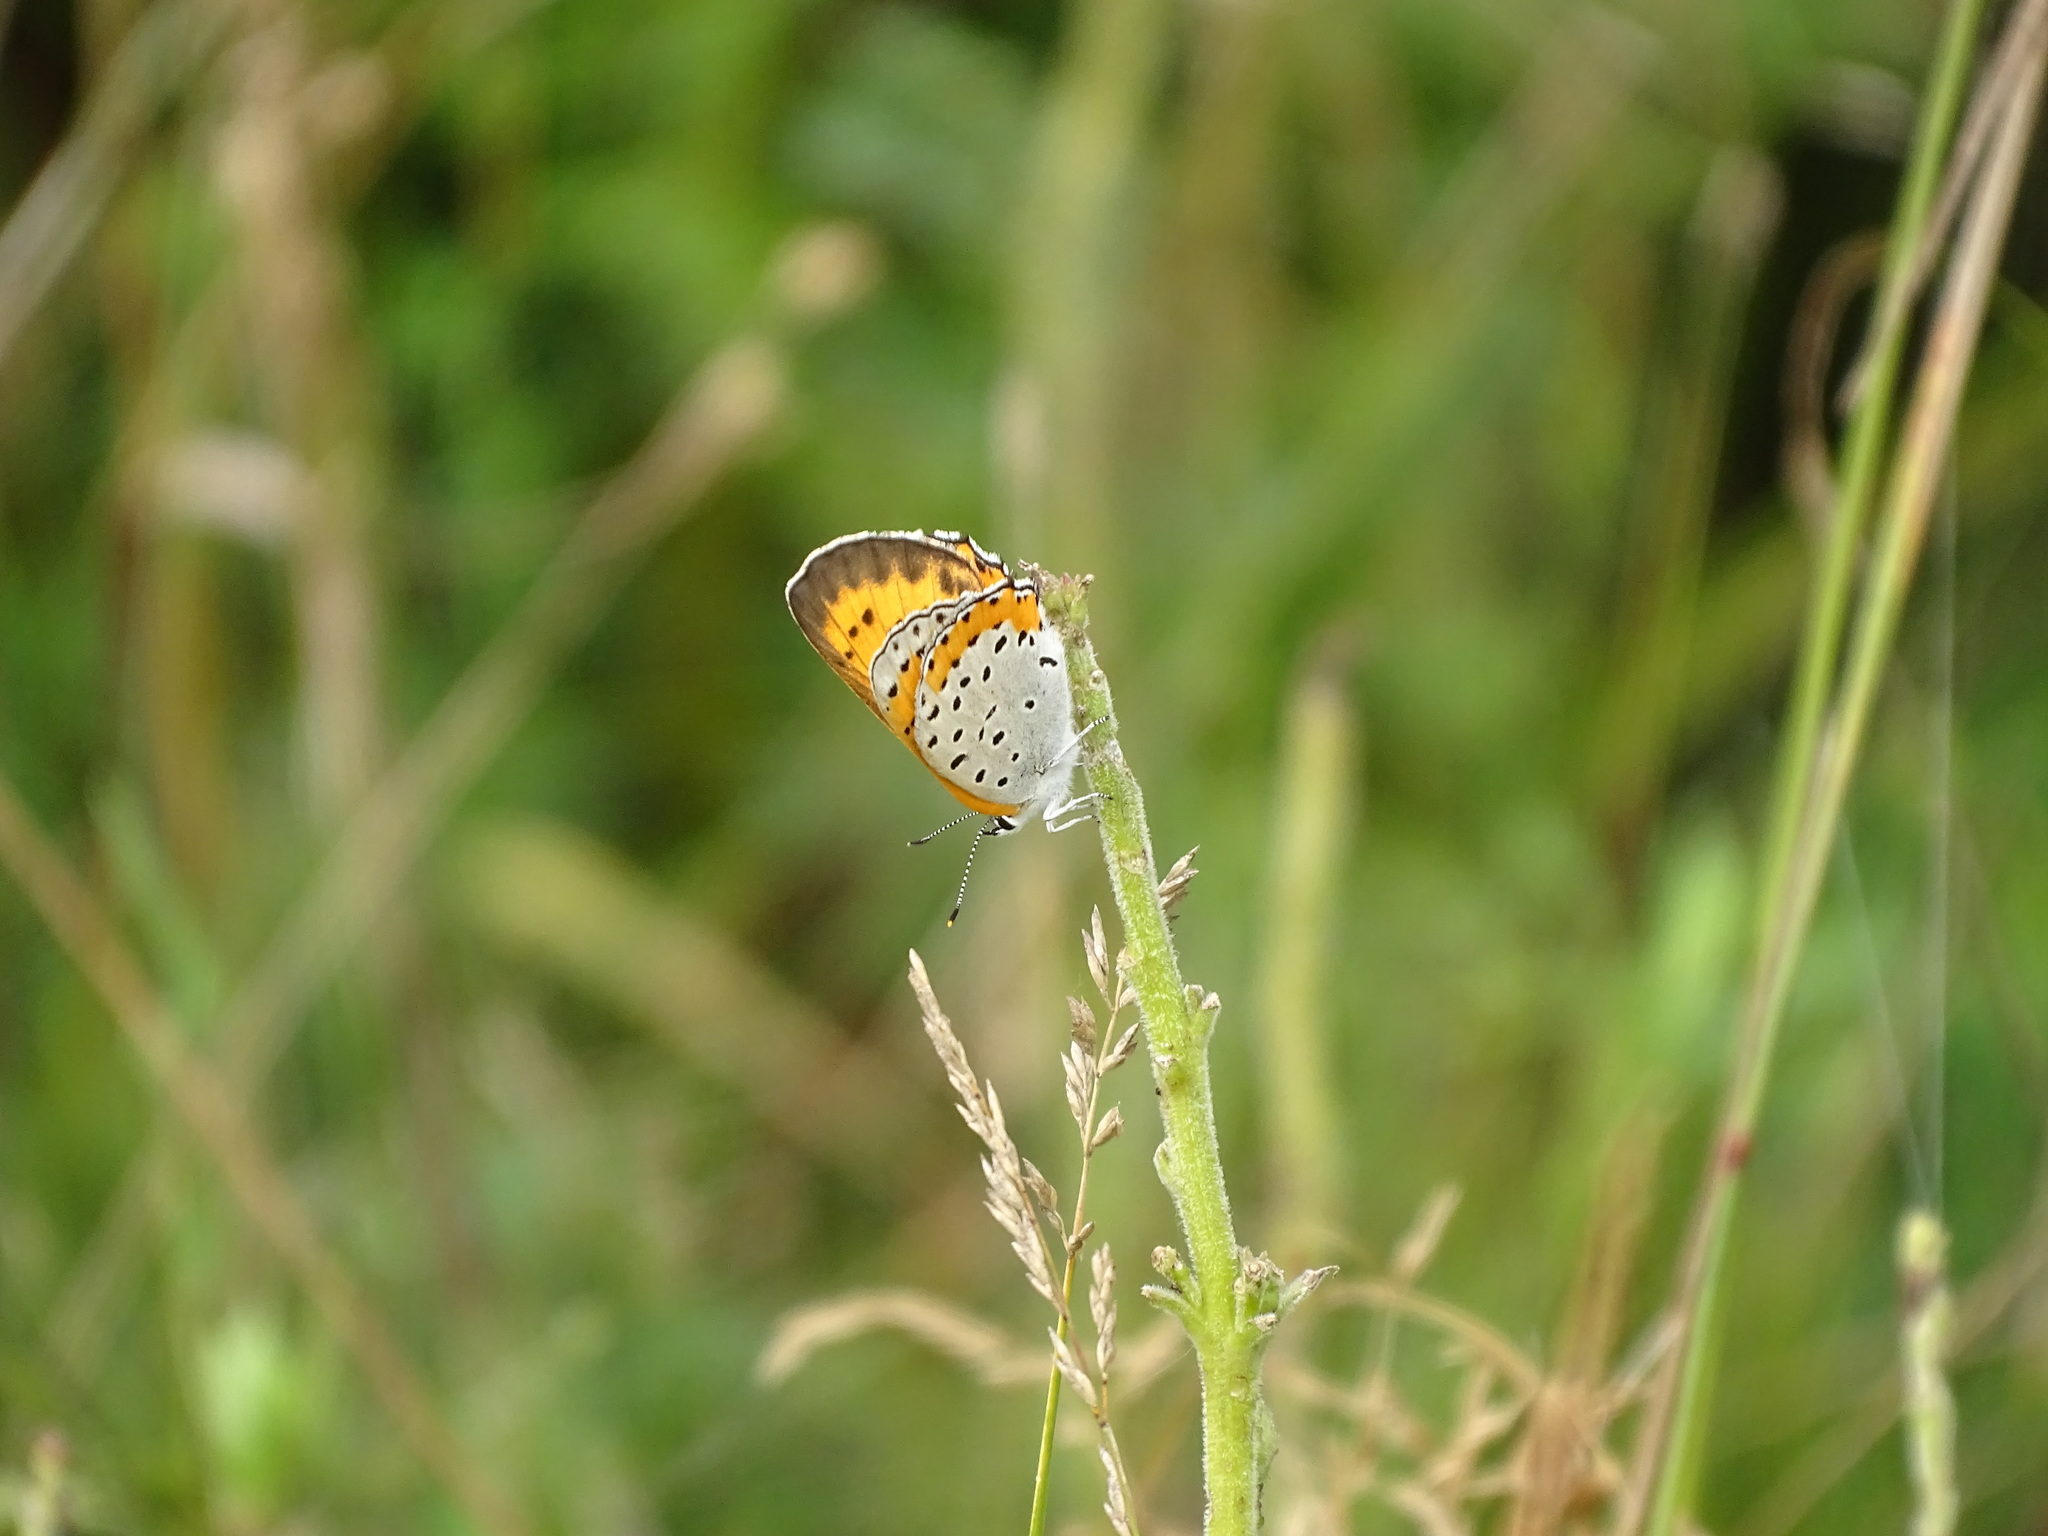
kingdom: Animalia
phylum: Arthropoda
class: Insecta
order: Lepidoptera
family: Lycaenidae
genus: Tharsalea
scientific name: Tharsalea hyllus
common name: Bronze copper
